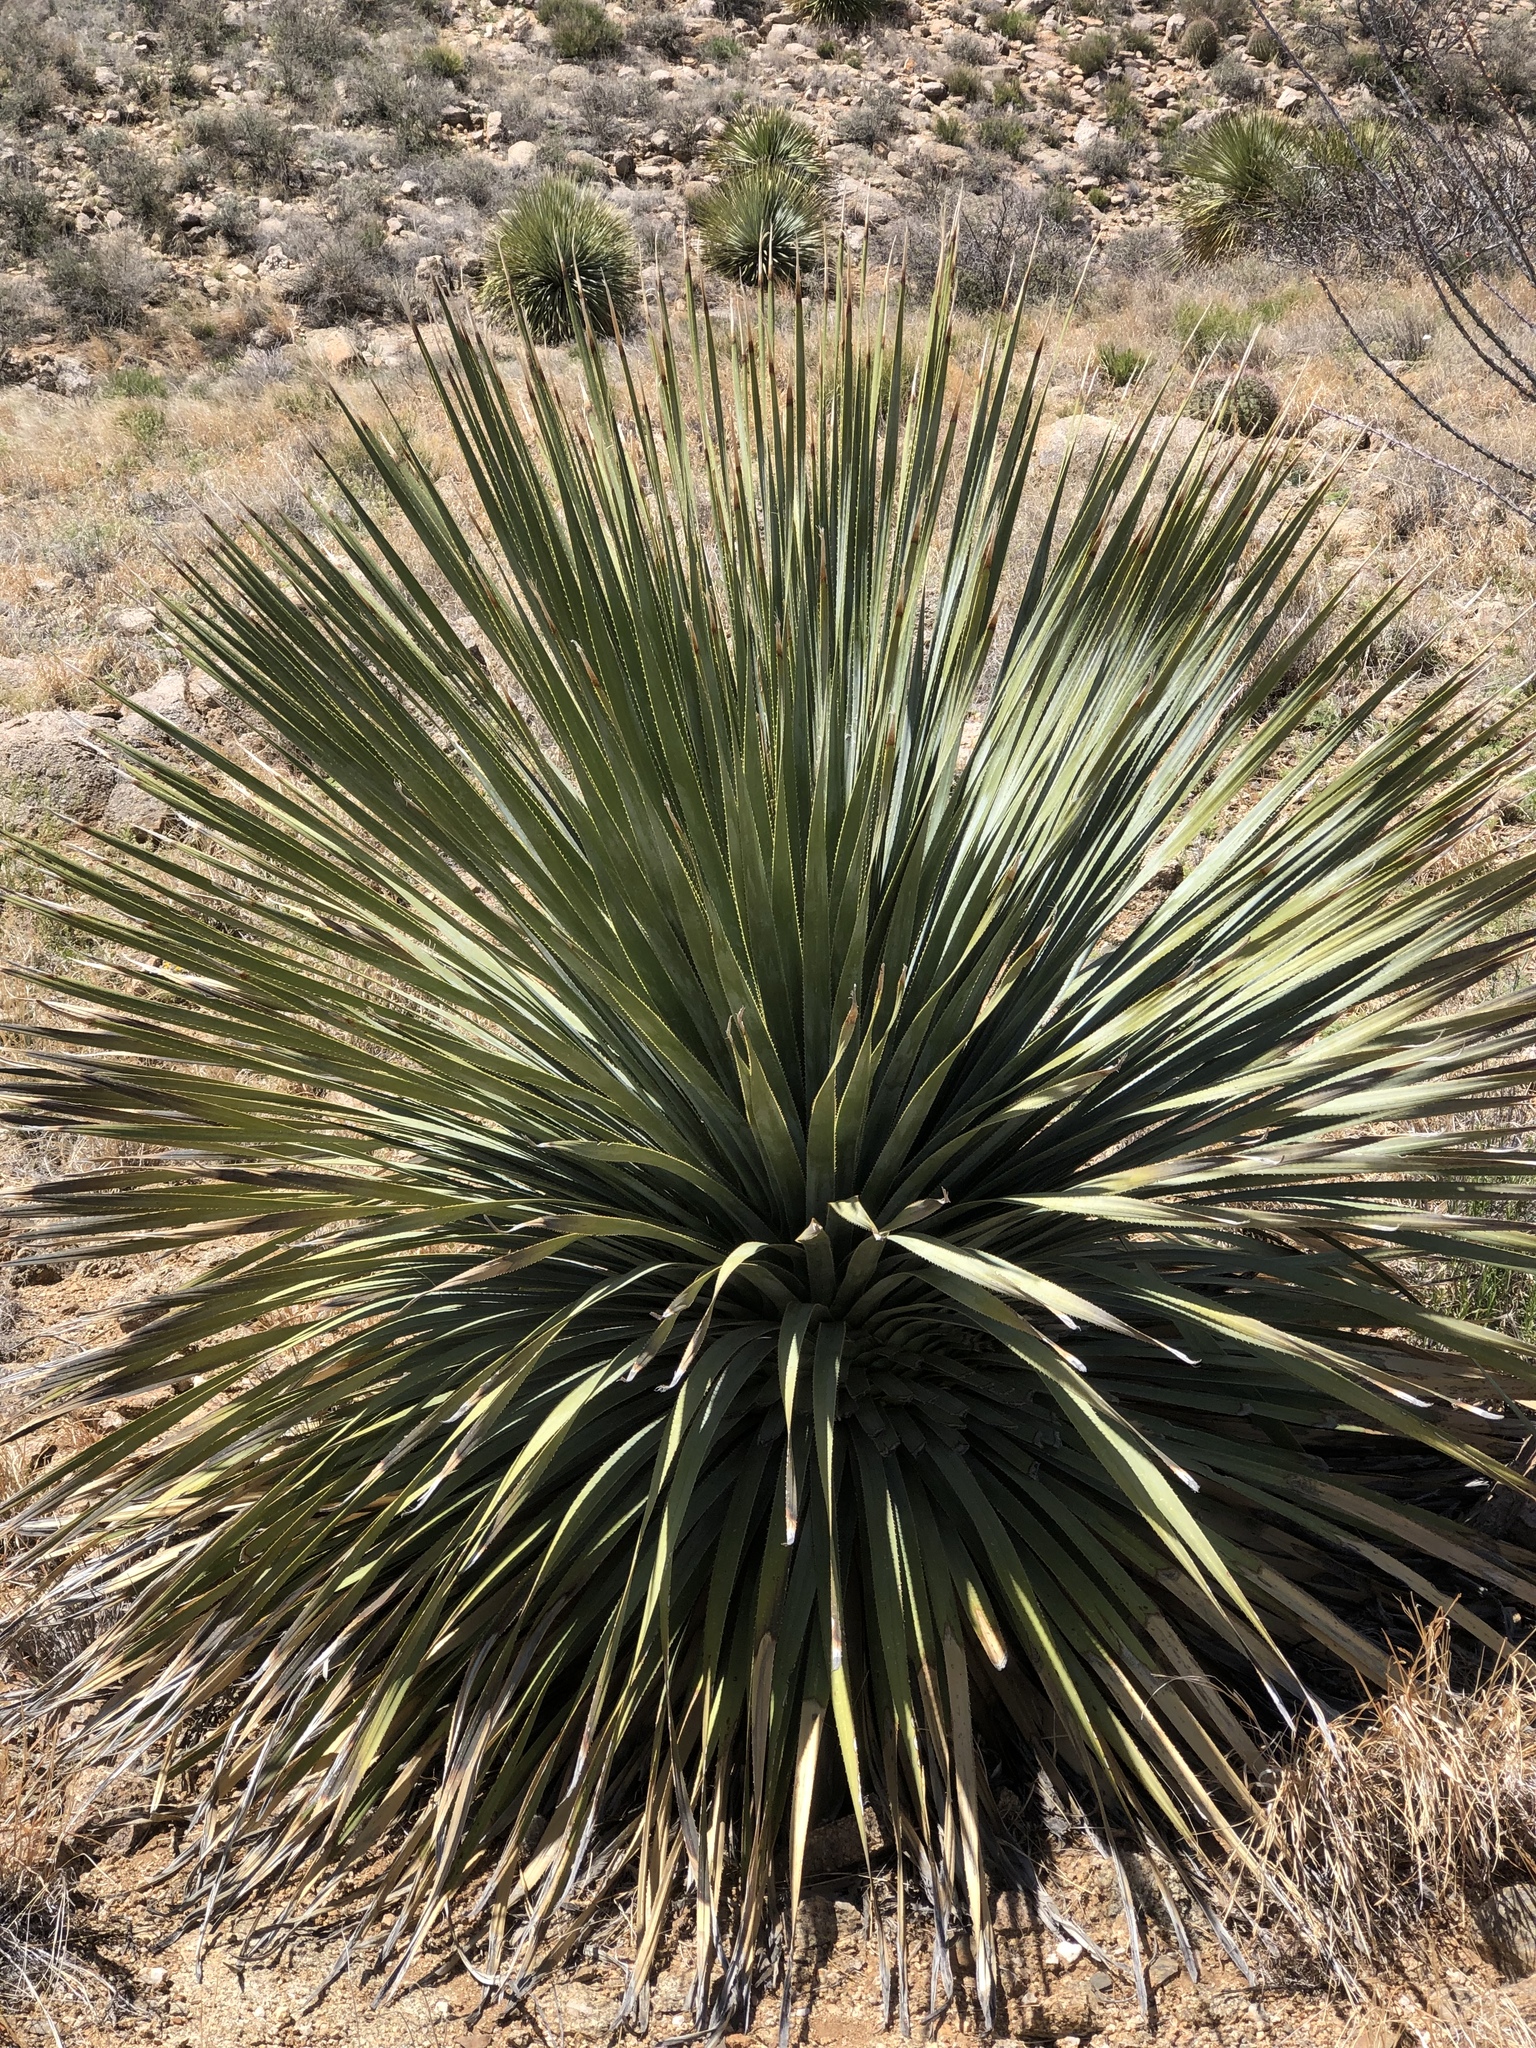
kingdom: Plantae
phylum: Tracheophyta
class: Liliopsida
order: Asparagales
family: Asparagaceae
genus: Dasylirion
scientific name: Dasylirion wheeleri
